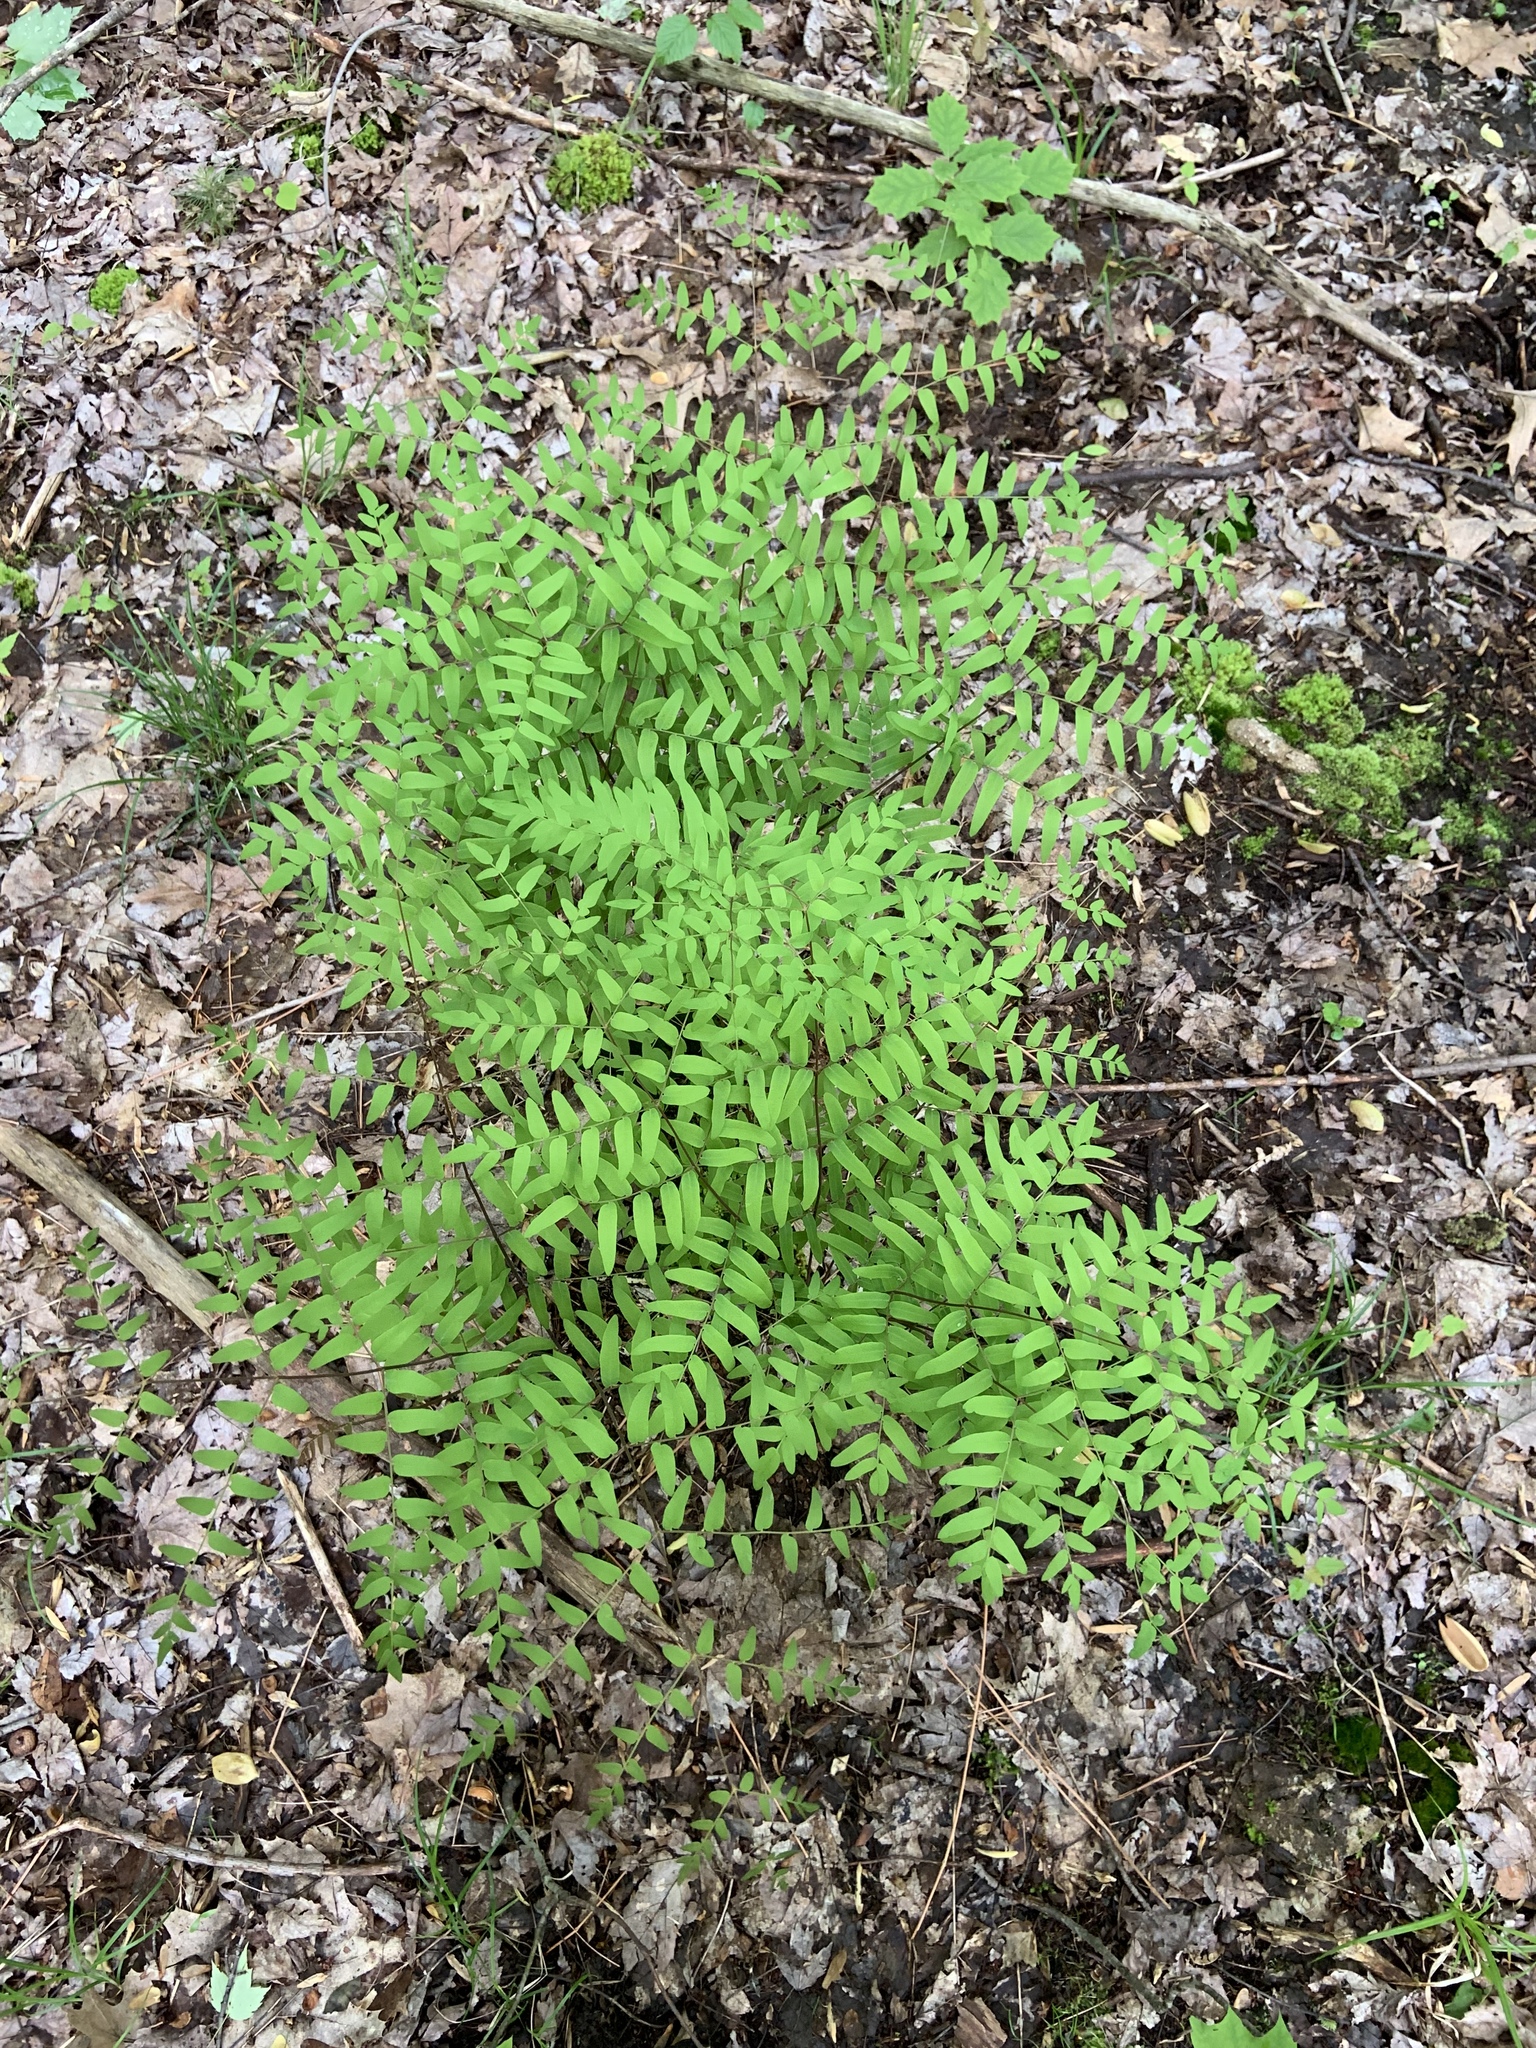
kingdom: Plantae
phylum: Tracheophyta
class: Polypodiopsida
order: Osmundales
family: Osmundaceae
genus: Osmunda
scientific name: Osmunda spectabilis
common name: American royal fern
